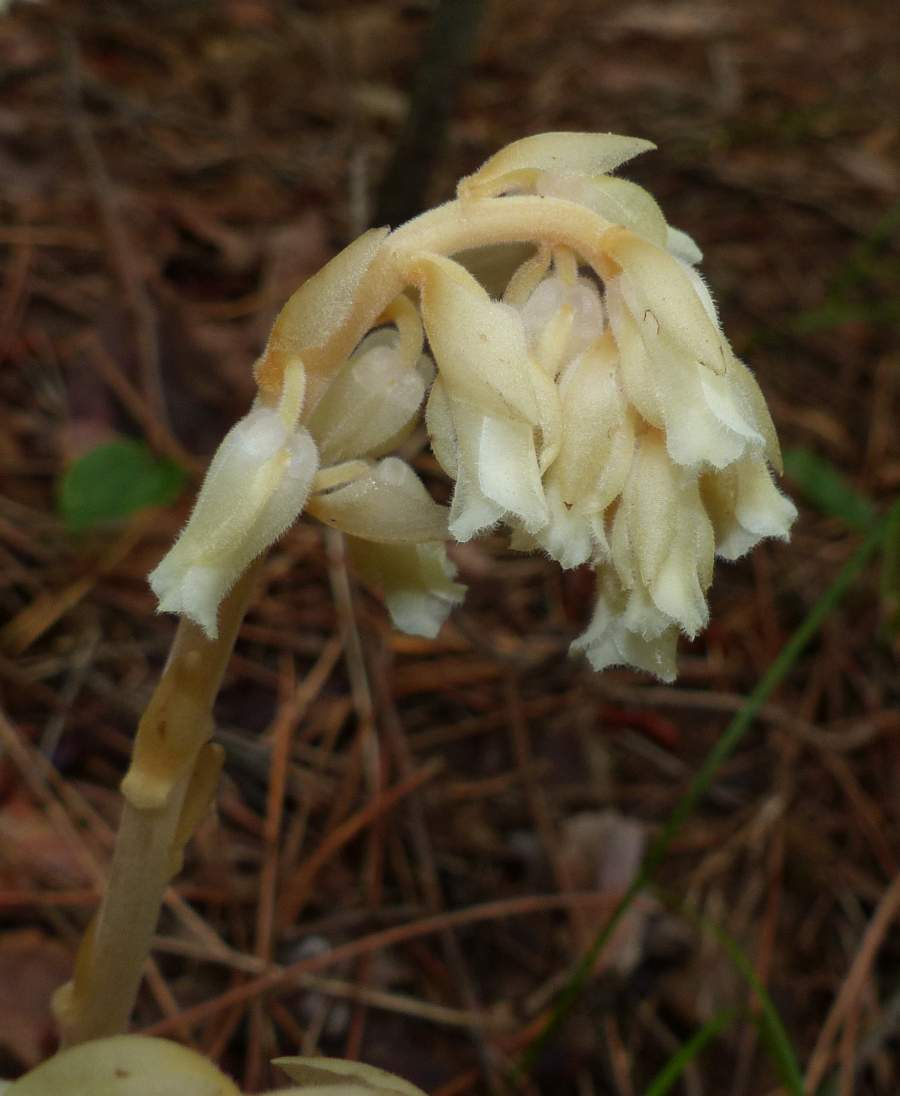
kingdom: Plantae
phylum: Tracheophyta
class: Magnoliopsida
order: Ericales
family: Ericaceae
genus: Hypopitys
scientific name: Hypopitys monotropa
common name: Yellow bird's-nest
